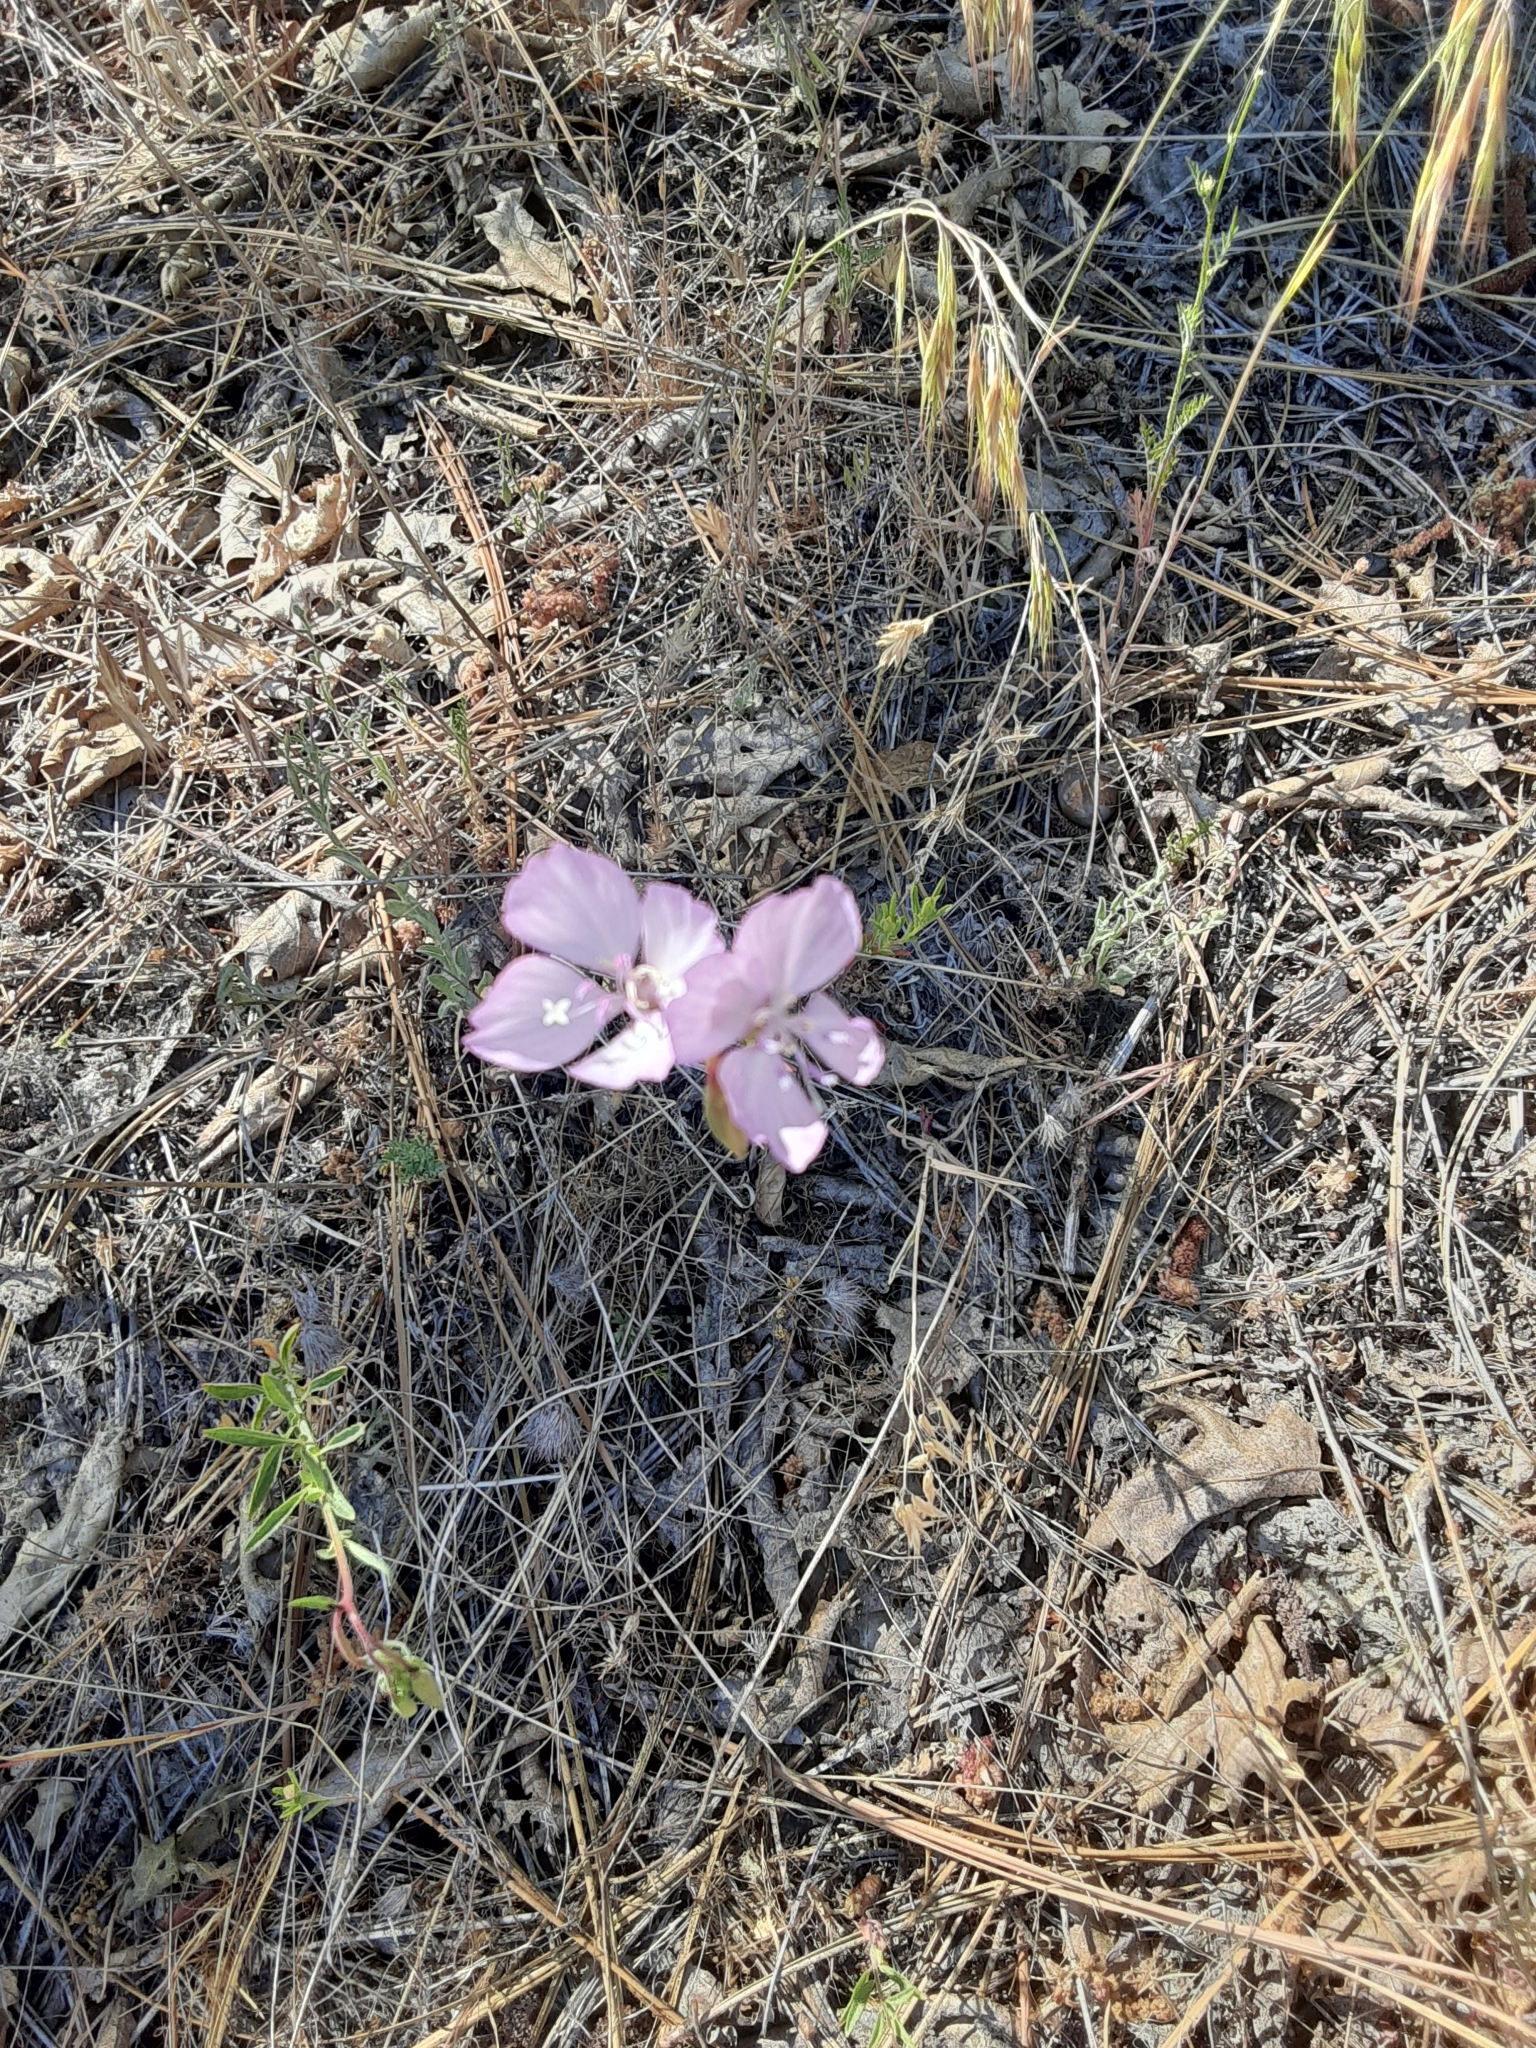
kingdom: Plantae
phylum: Tracheophyta
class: Magnoliopsida
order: Myrtales
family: Onagraceae
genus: Clarkia
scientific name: Clarkia dudleyana
